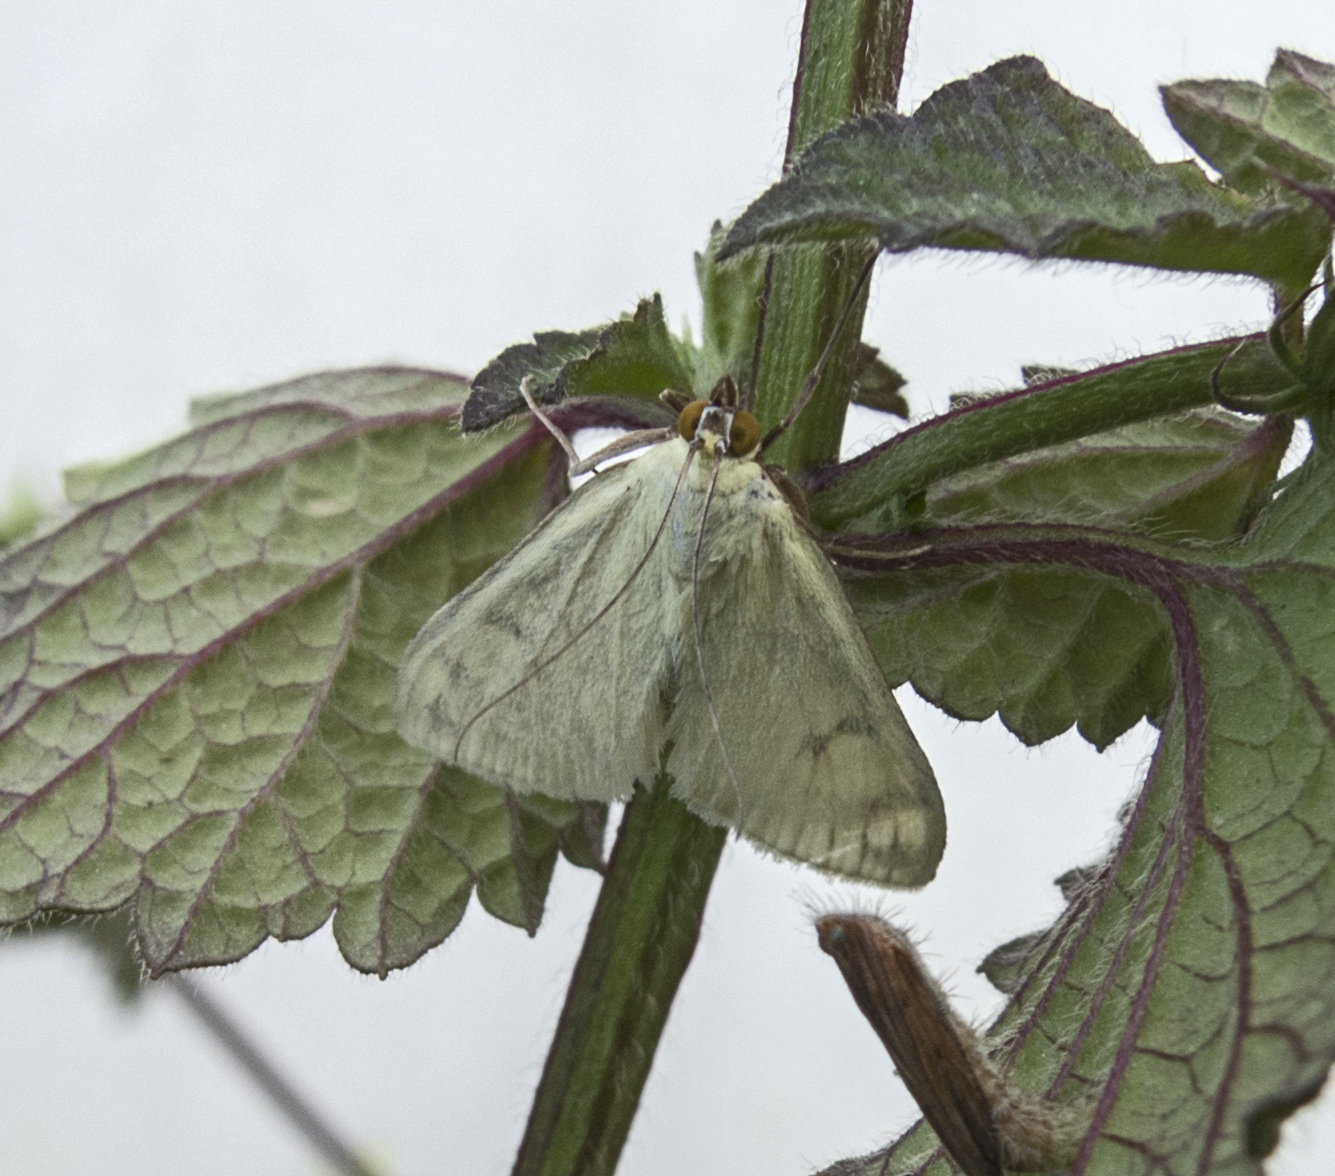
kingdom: Animalia
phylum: Arthropoda
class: Insecta
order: Lepidoptera
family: Crambidae
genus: Sitochroa
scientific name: Sitochroa palealis
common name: Greenish-yellow sitochroa moth
